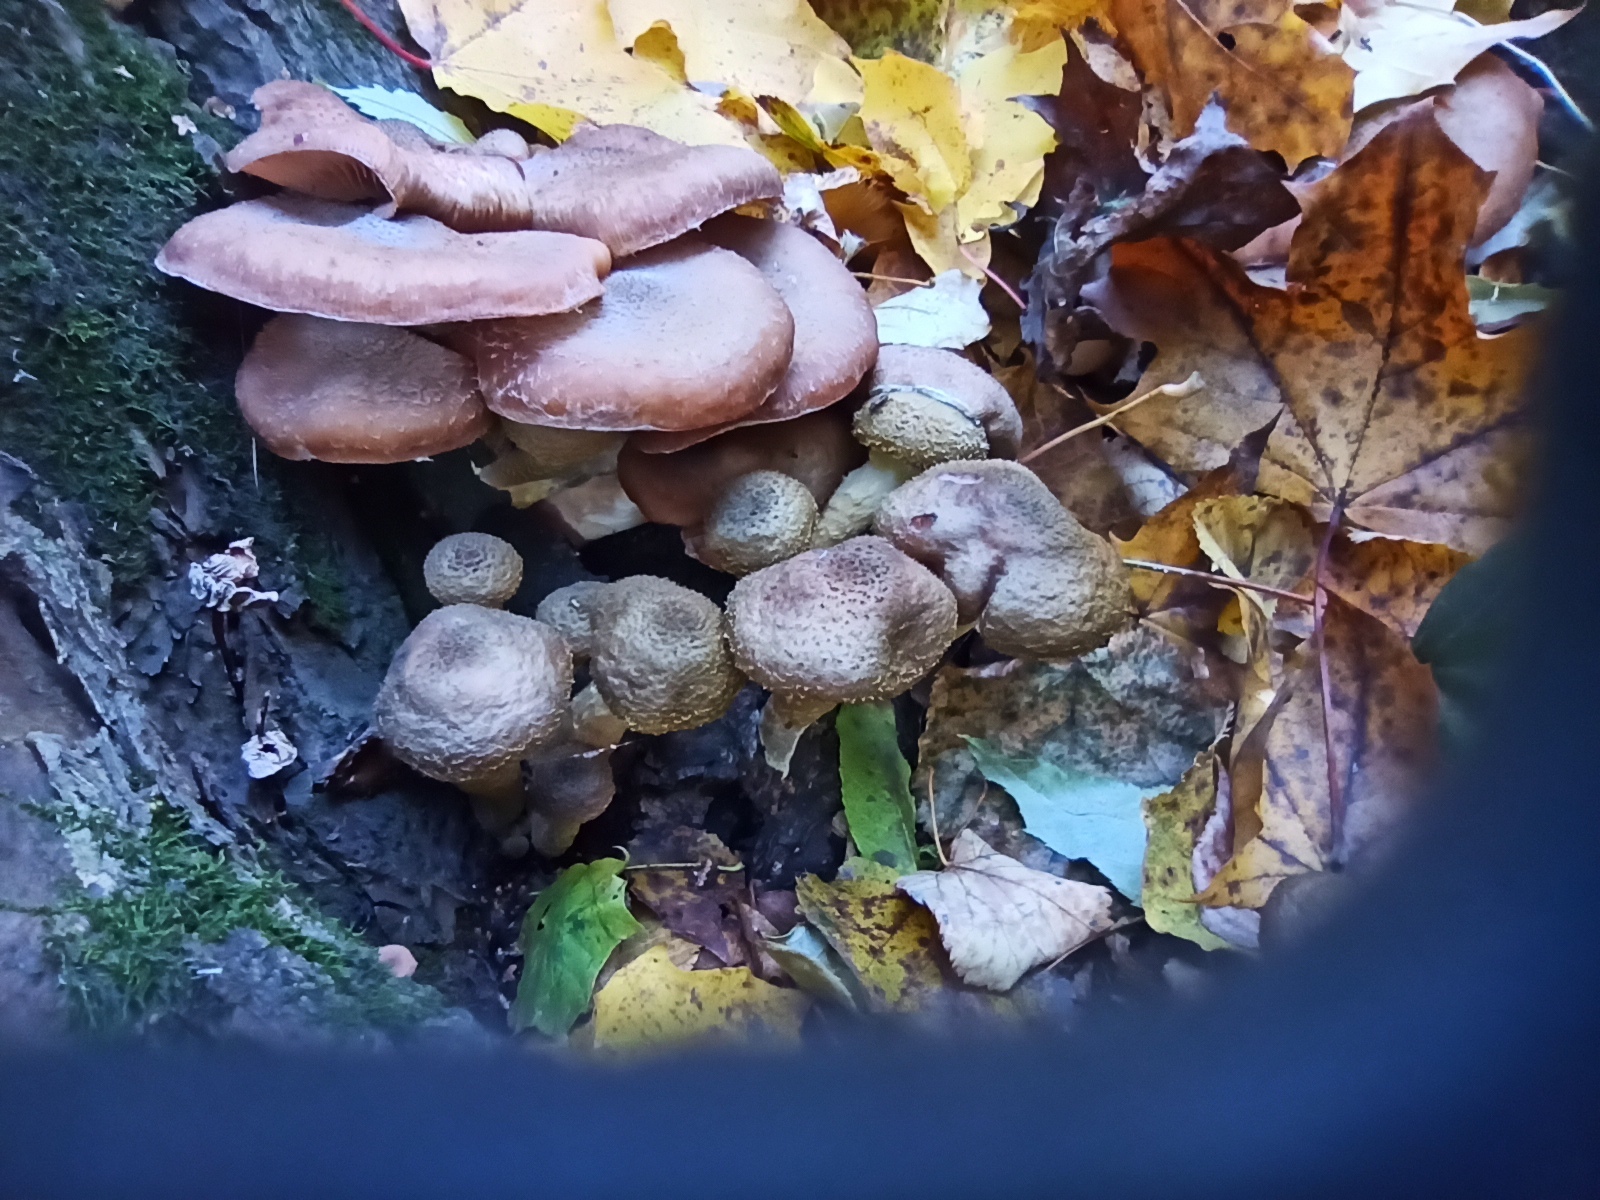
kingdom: Fungi
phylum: Basidiomycota
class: Agaricomycetes
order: Agaricales
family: Physalacriaceae
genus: Armillaria
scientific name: Armillaria gallica
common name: Bulbous honey fungus
